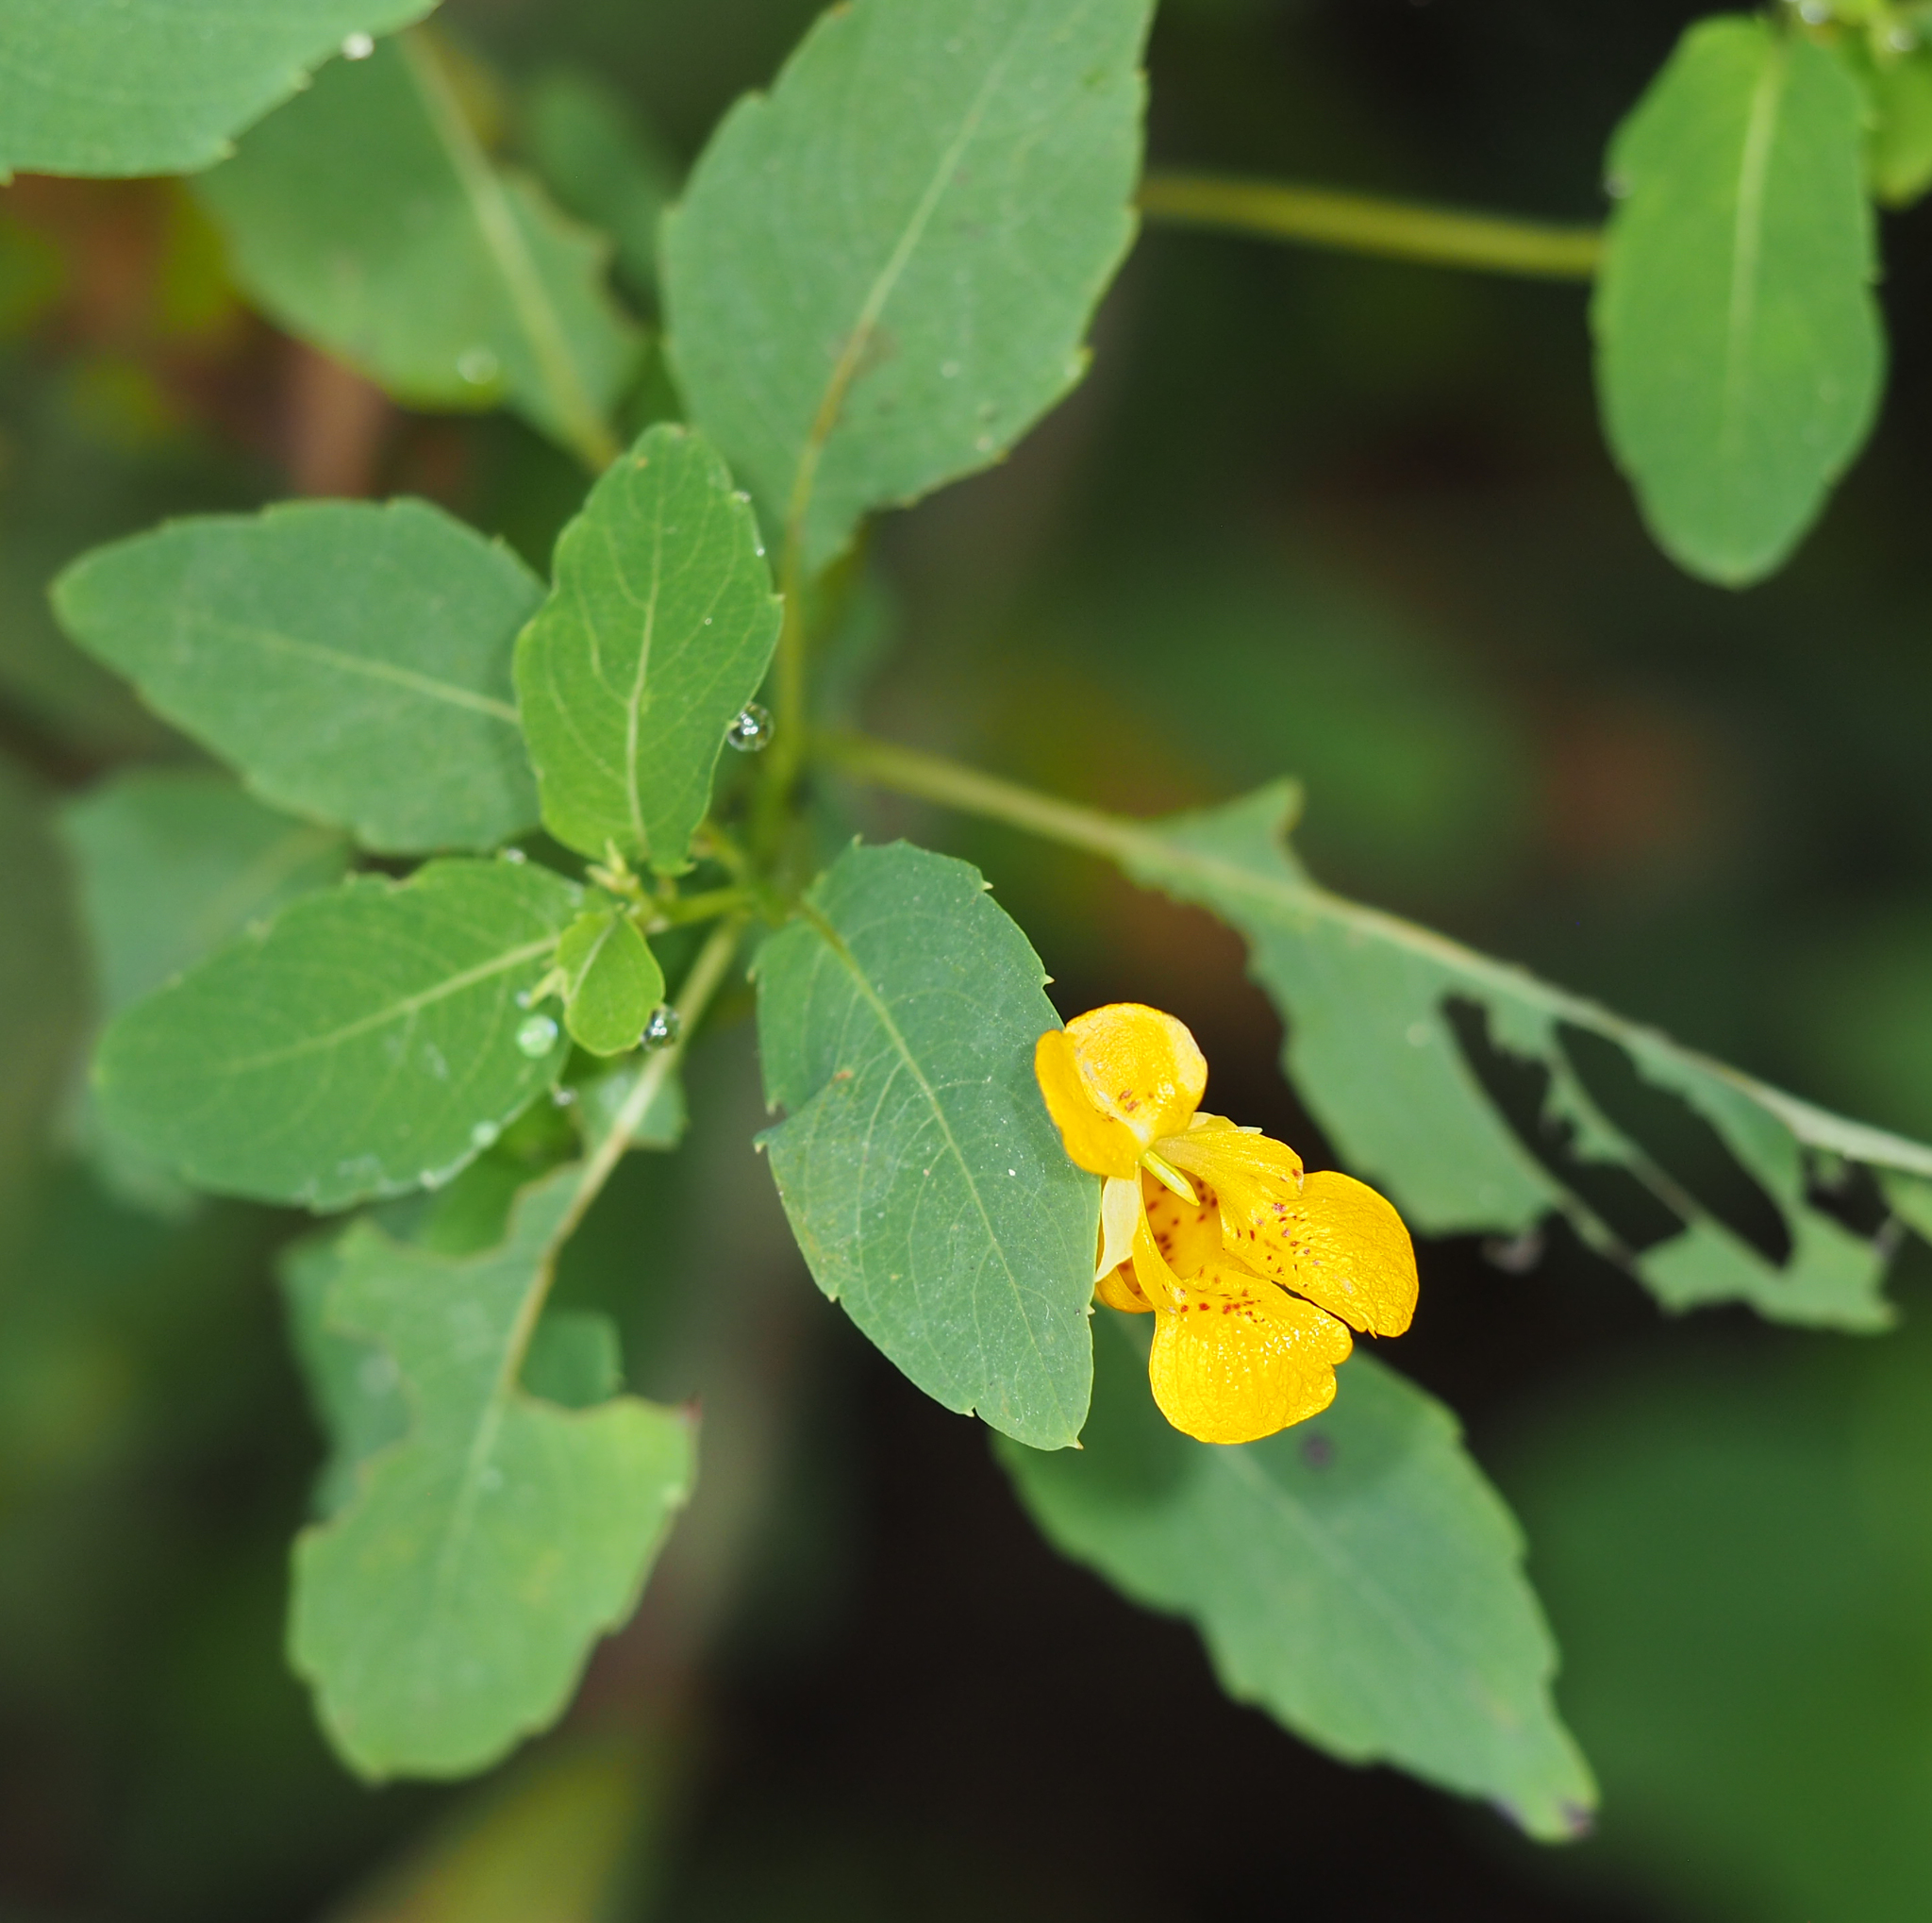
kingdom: Plantae
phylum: Tracheophyta
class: Magnoliopsida
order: Ericales
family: Balsaminaceae
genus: Impatiens
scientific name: Impatiens capensis
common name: Orange balsam
